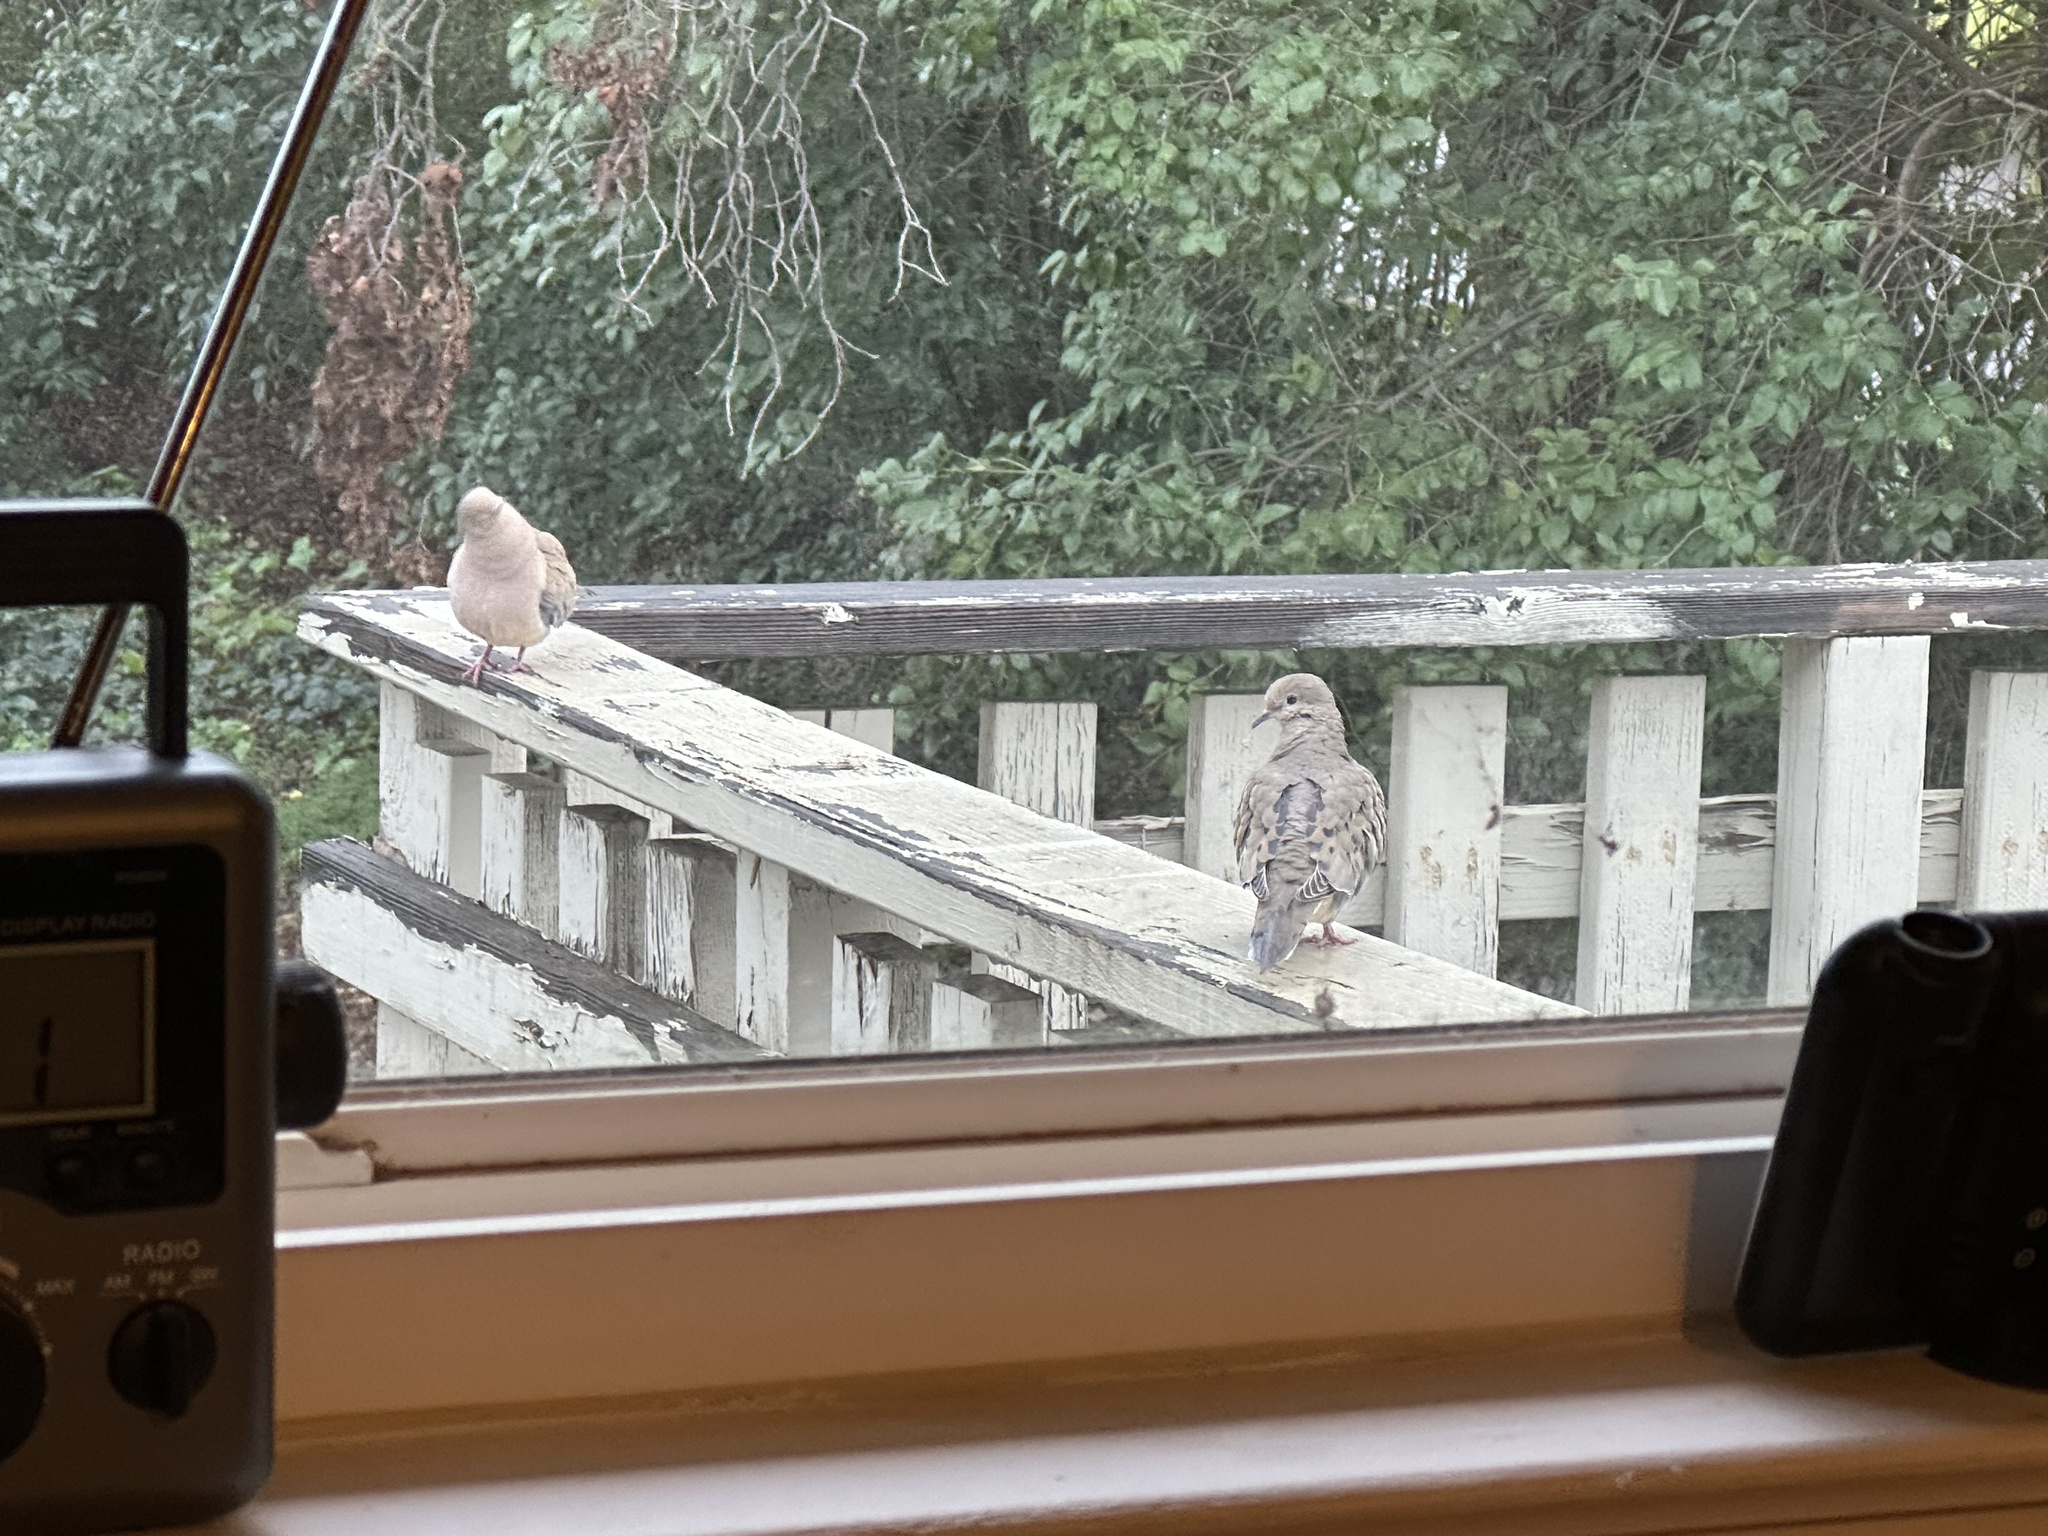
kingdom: Animalia
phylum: Chordata
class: Aves
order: Columbiformes
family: Columbidae
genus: Zenaida
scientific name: Zenaida macroura
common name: Mourning dove
